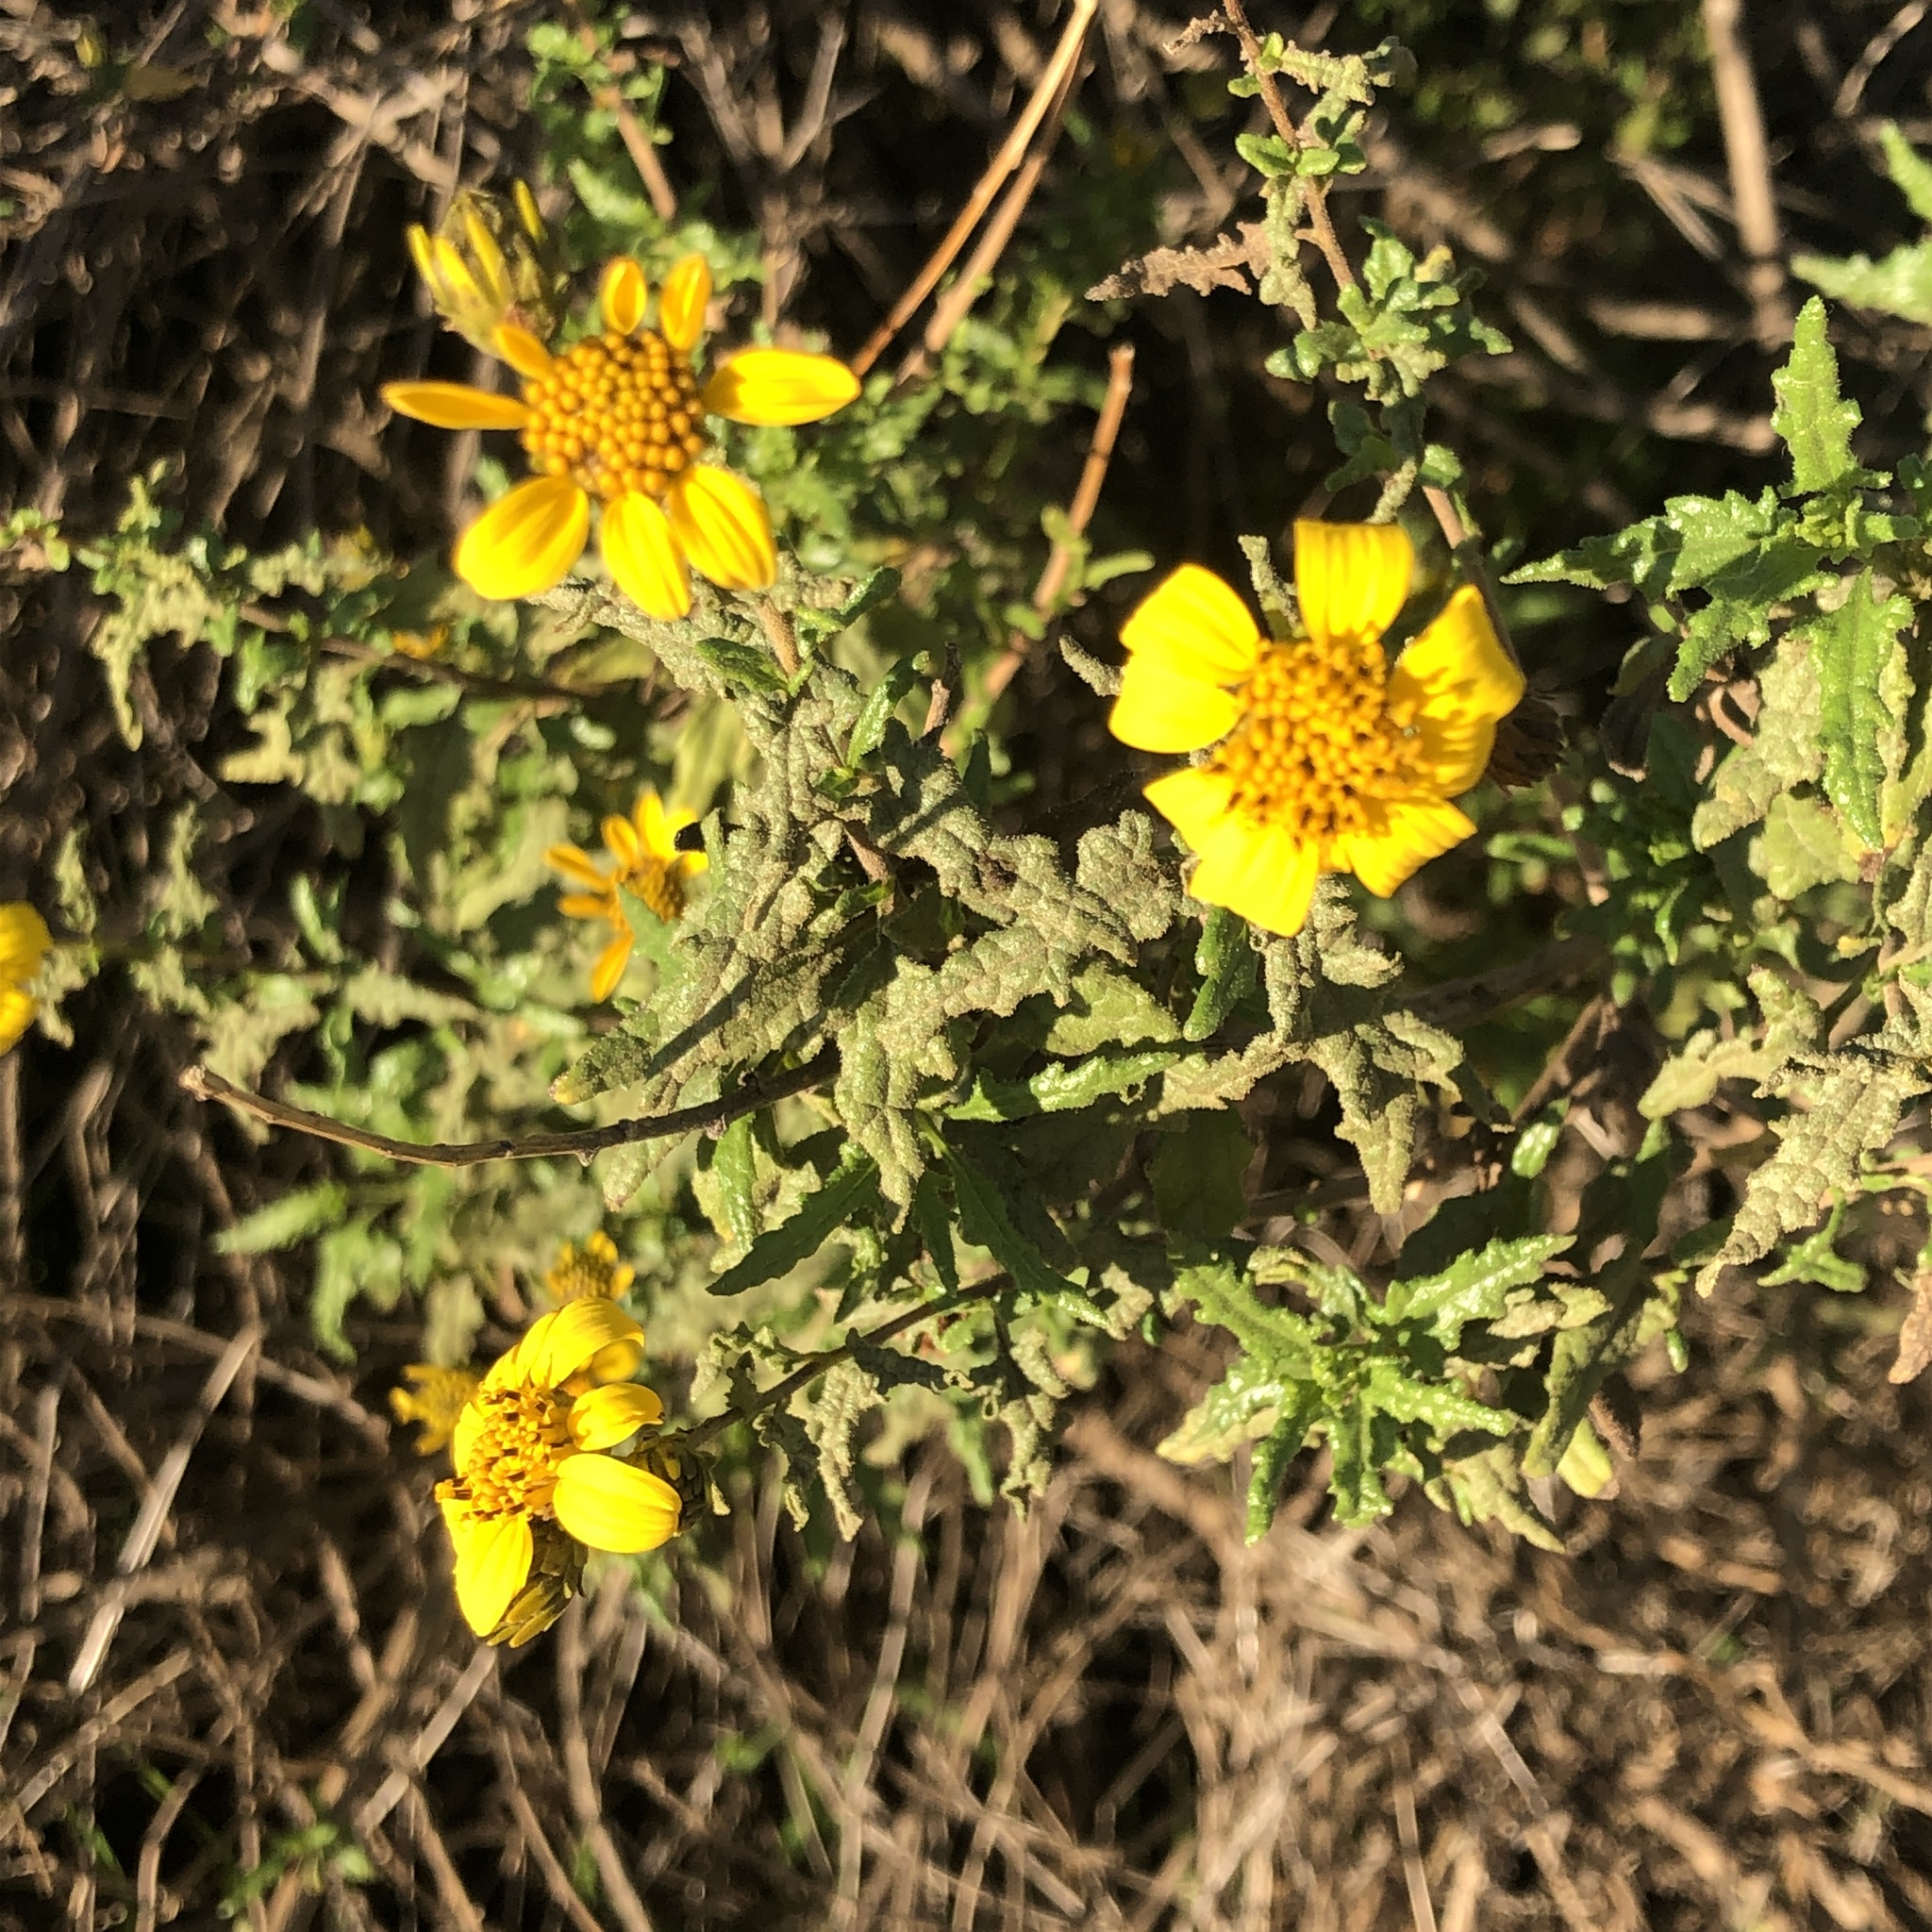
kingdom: Plantae
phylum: Tracheophyta
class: Magnoliopsida
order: Asterales
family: Asteraceae
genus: Bahiopsis
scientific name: Bahiopsis laciniata
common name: San diego county viguiera
